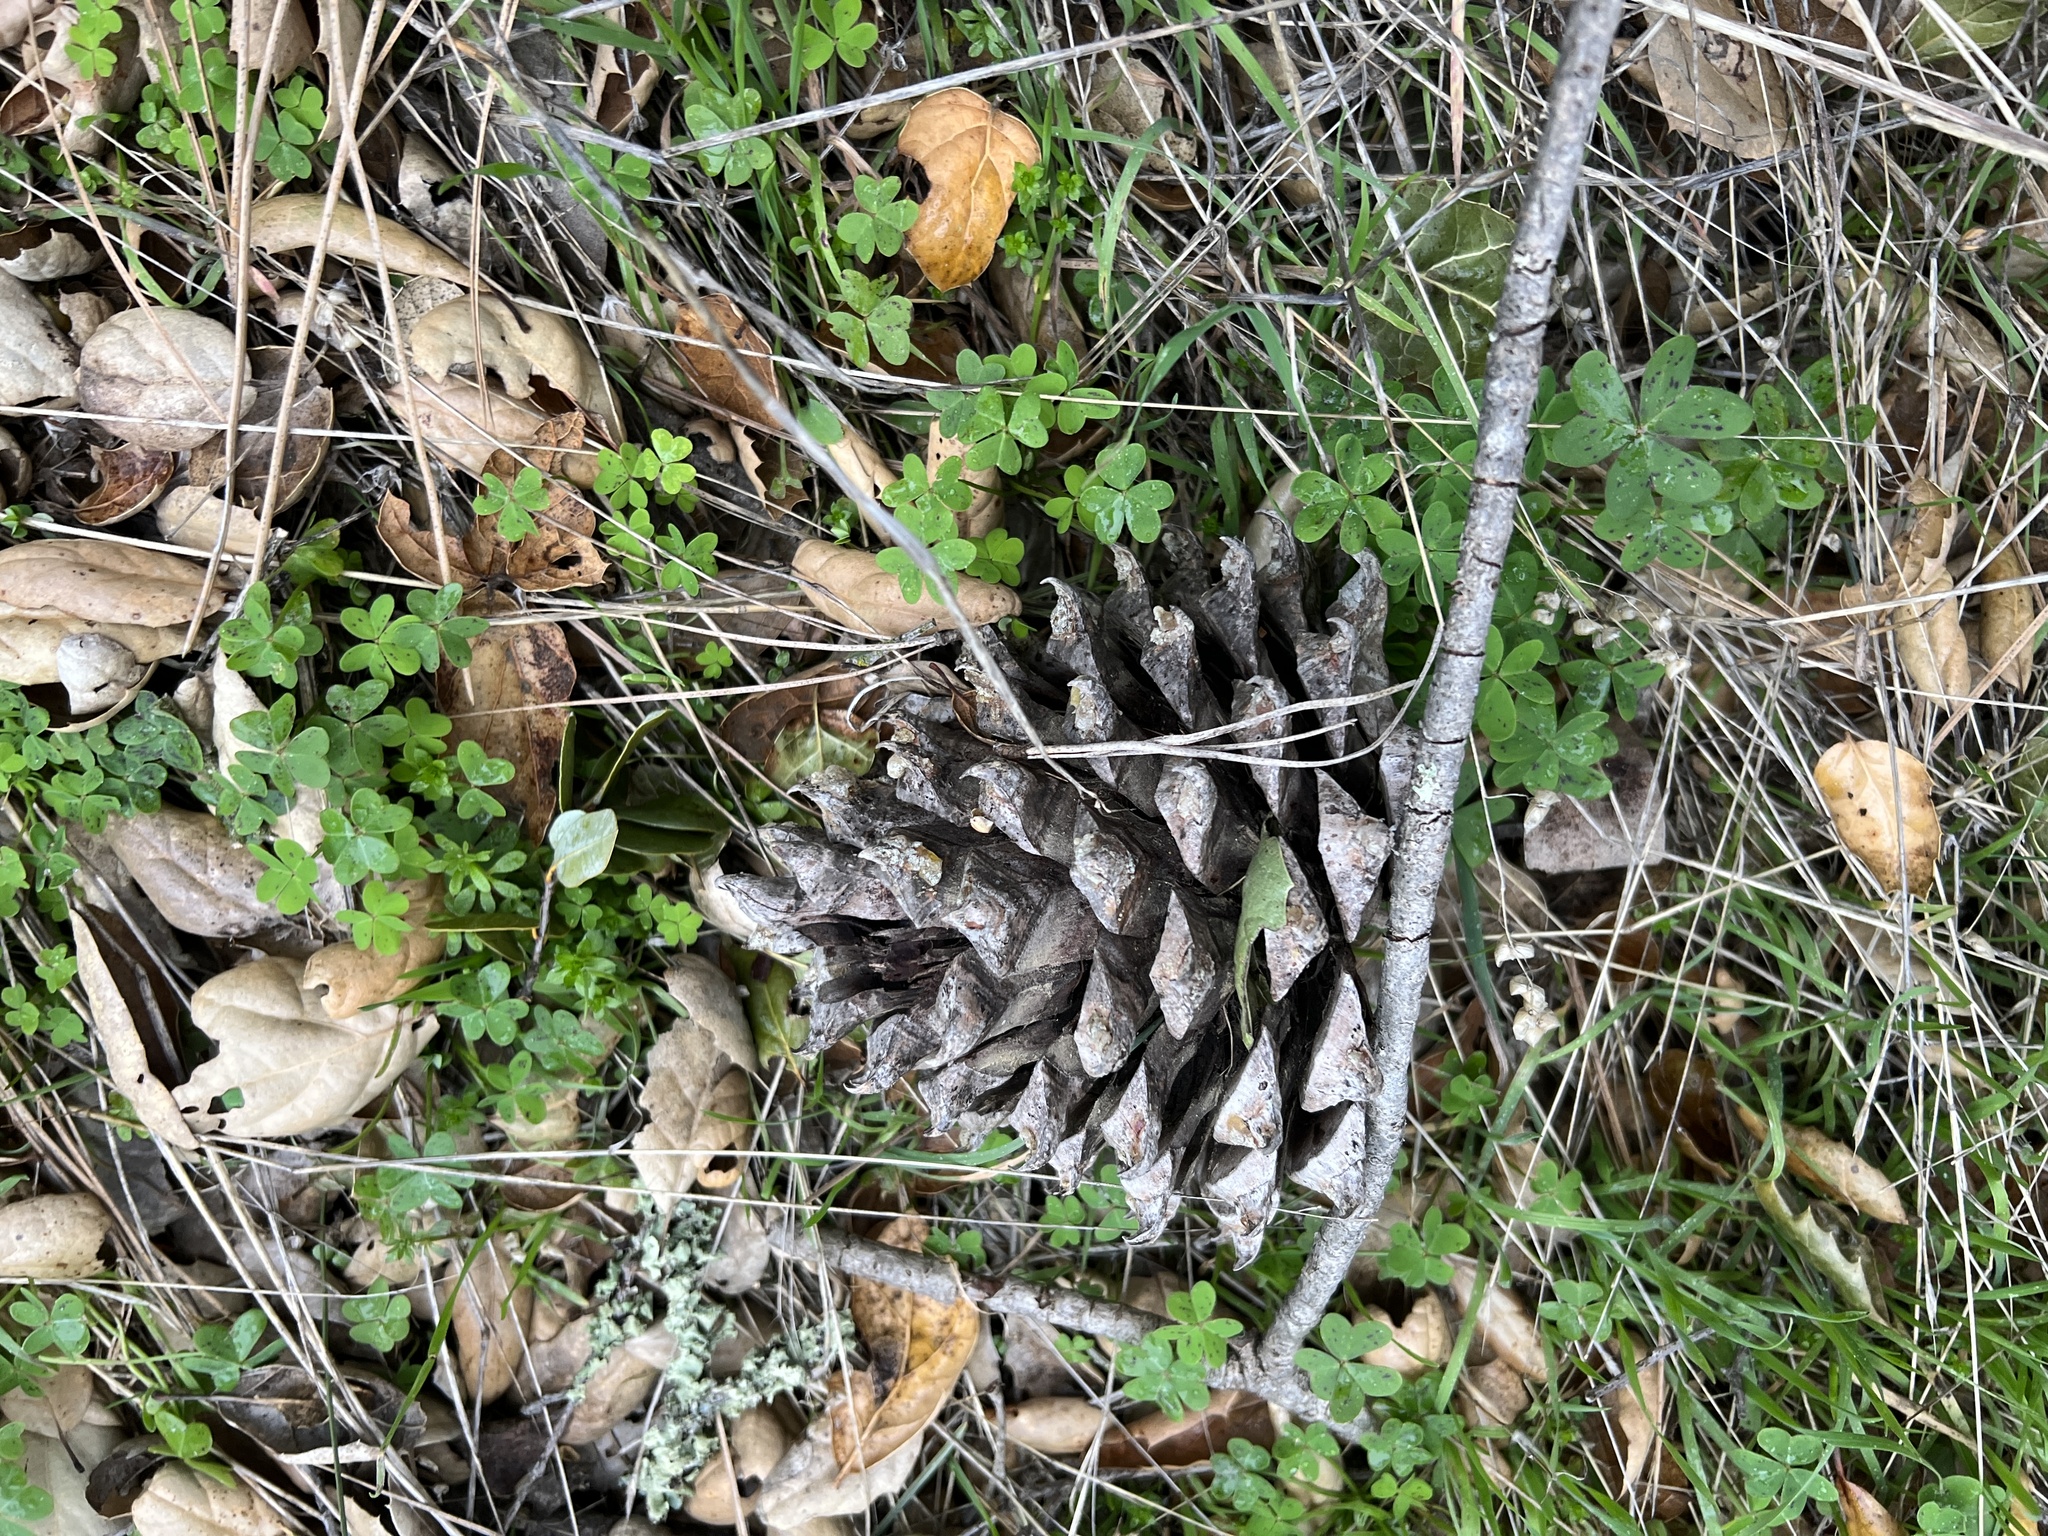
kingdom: Plantae
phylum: Tracheophyta
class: Pinopsida
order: Pinales
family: Pinaceae
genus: Pinus
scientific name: Pinus sabiniana
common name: Bull pine
